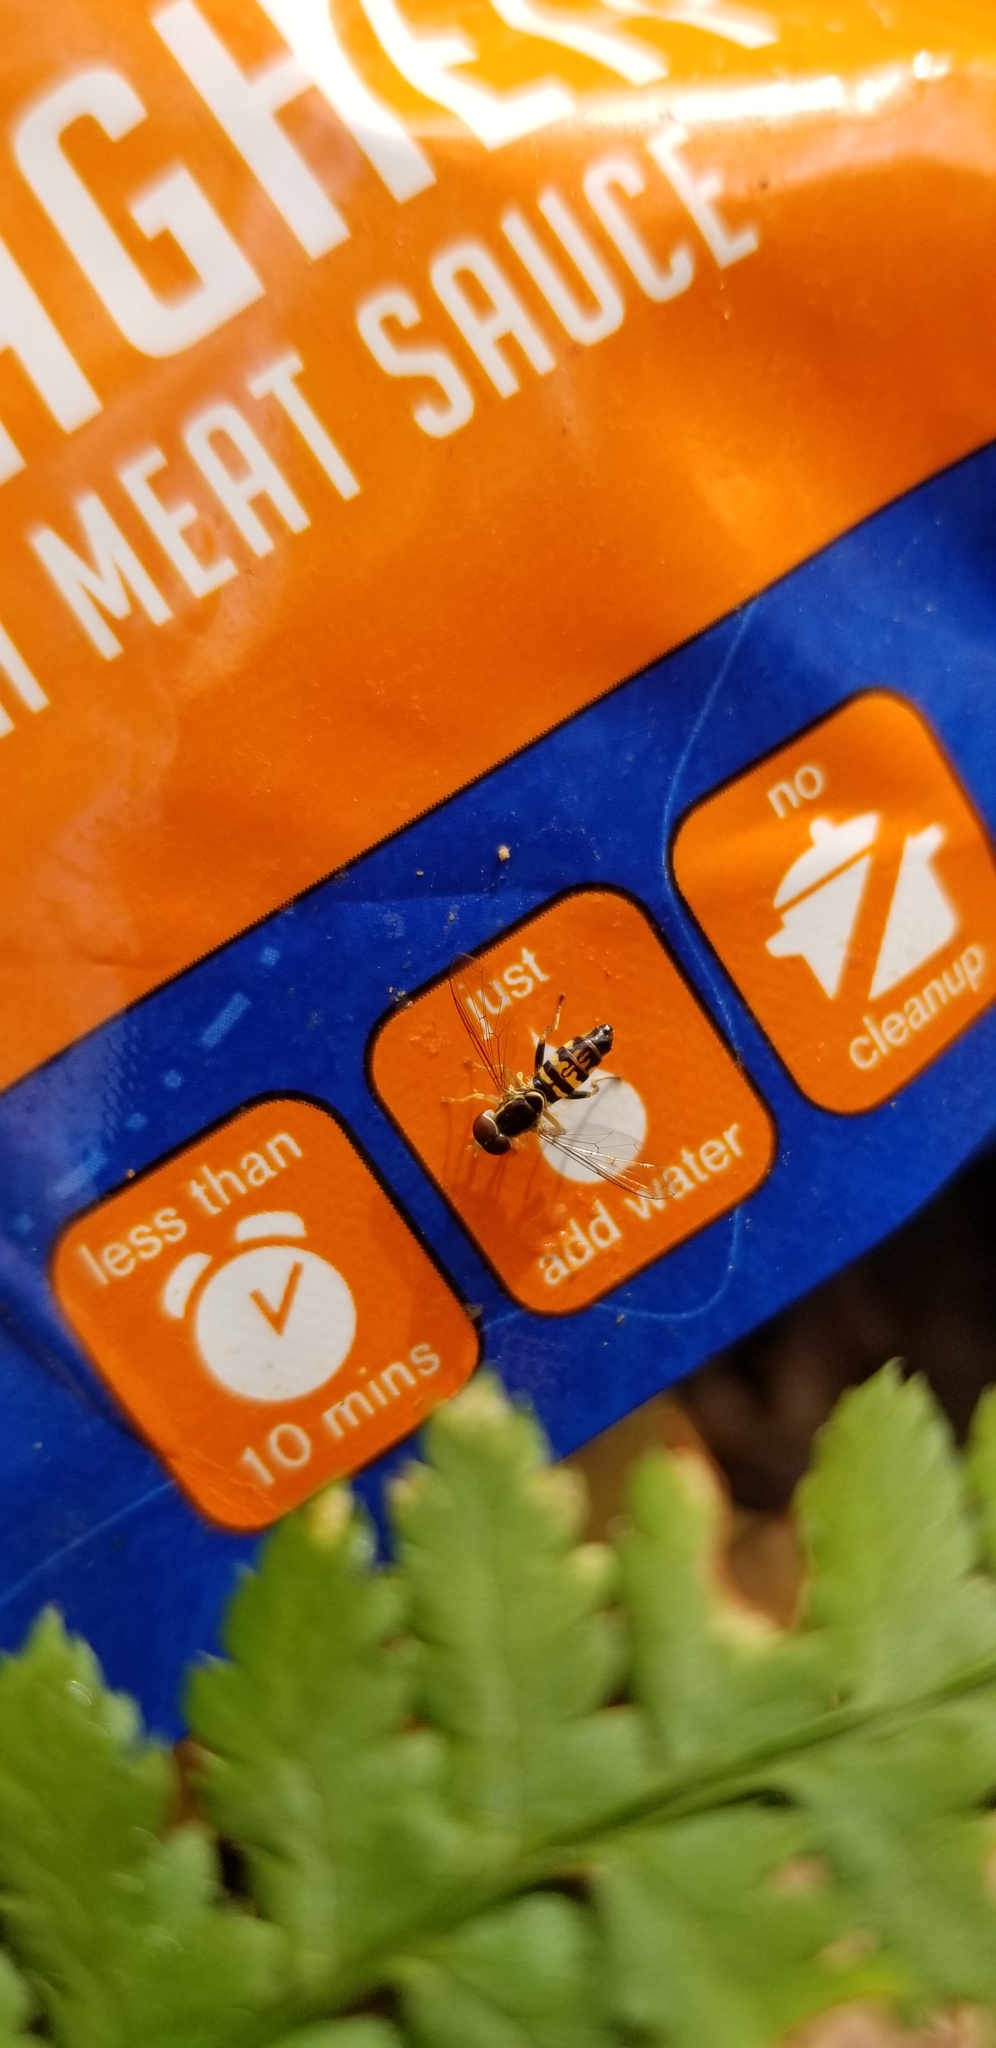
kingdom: Animalia
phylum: Arthropoda
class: Insecta
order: Diptera
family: Syrphidae
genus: Toxomerus
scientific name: Toxomerus geminatus
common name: Eastern calligrapher
